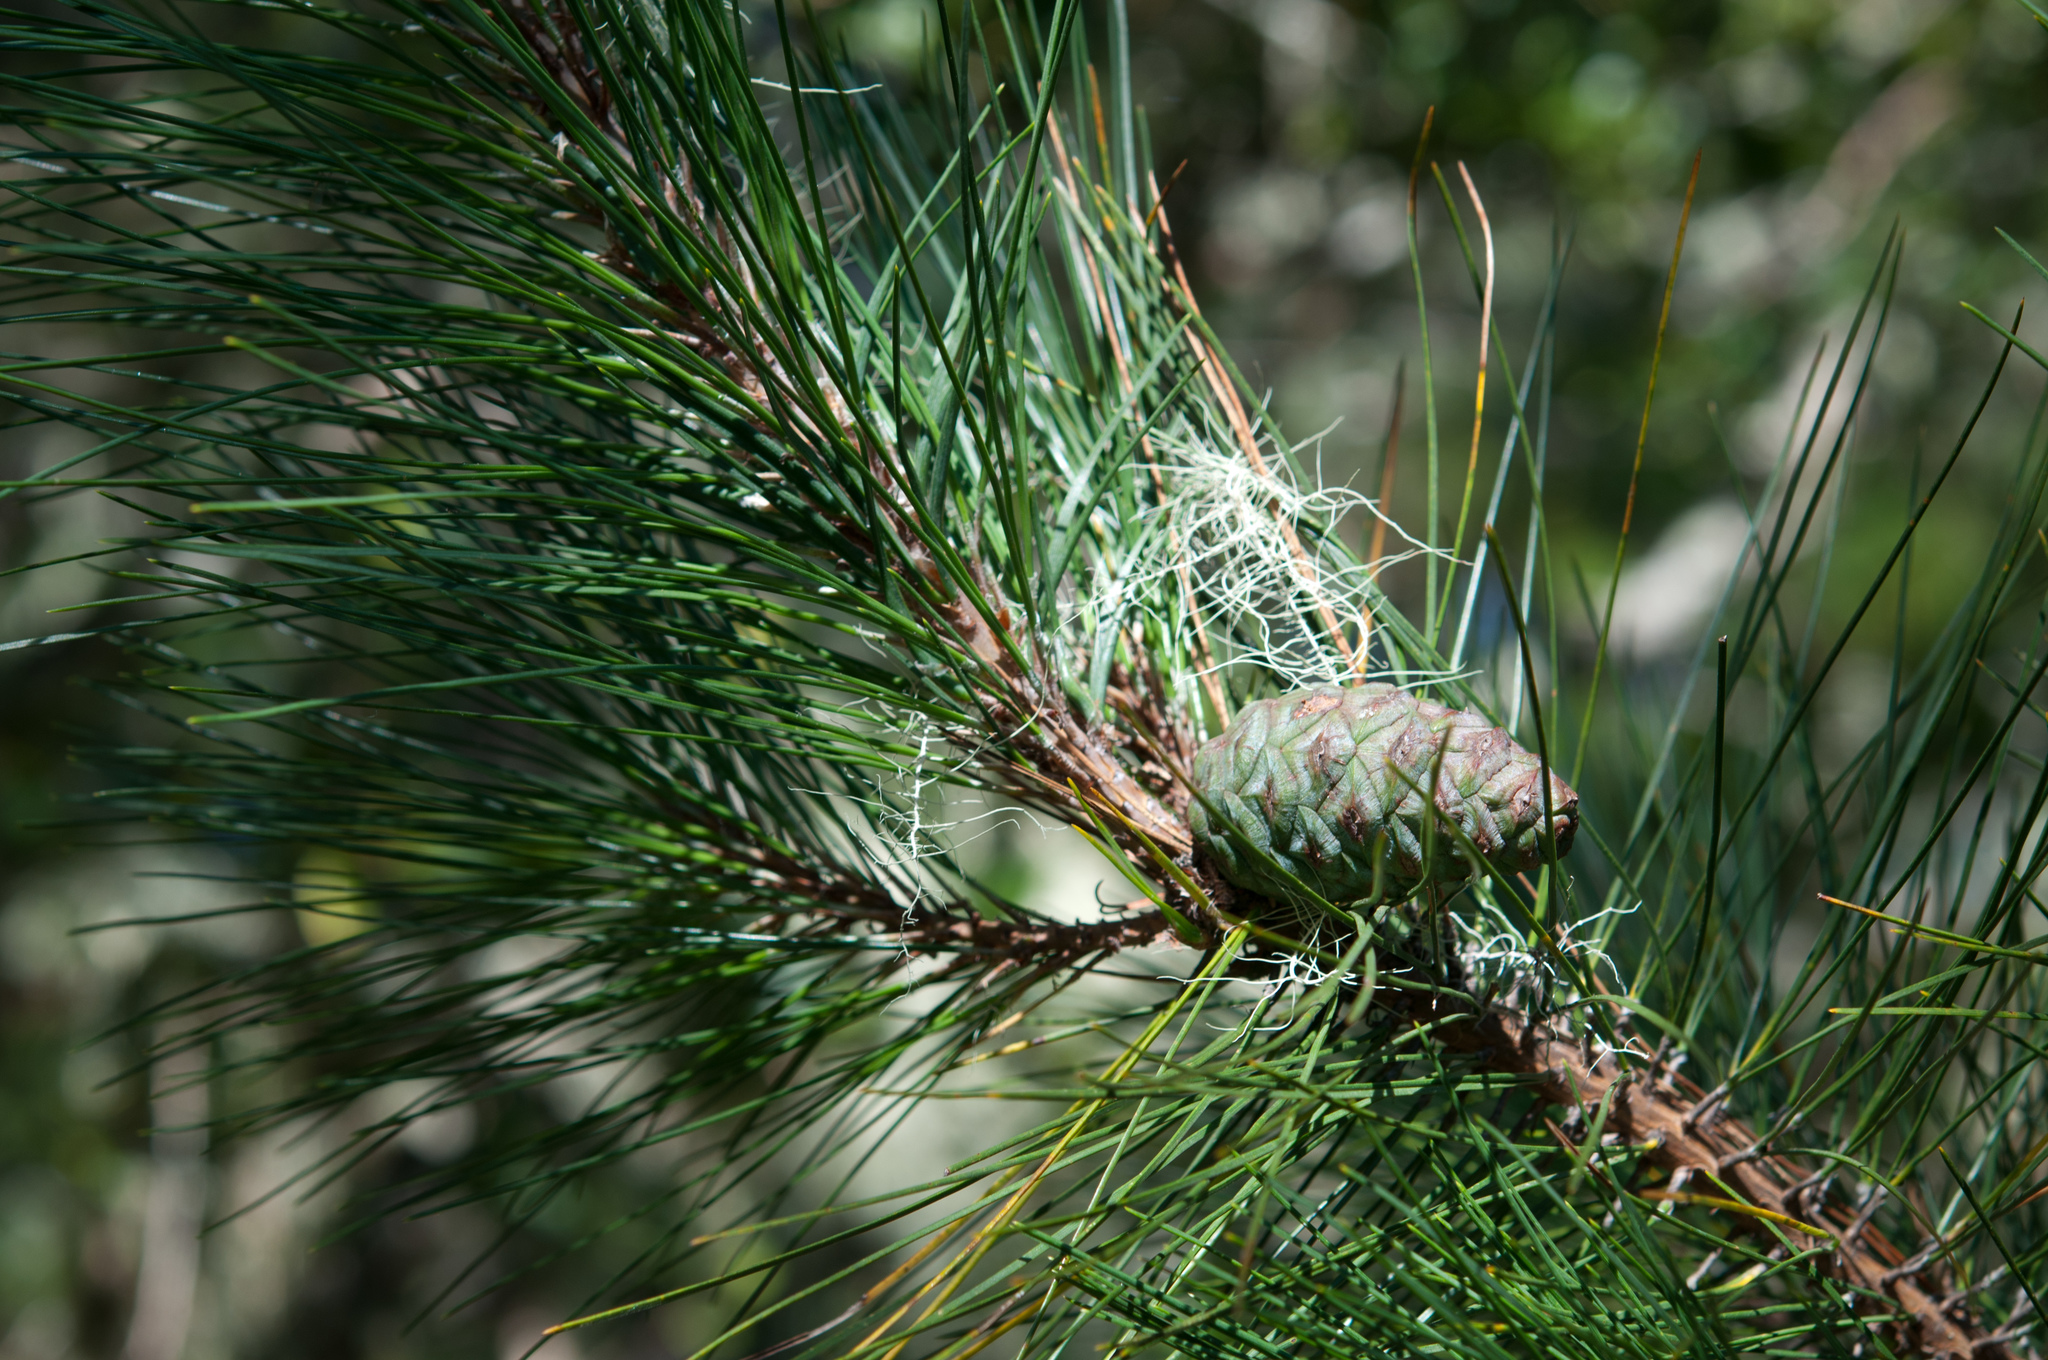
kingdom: Plantae
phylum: Tracheophyta
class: Pinopsida
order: Pinales
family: Pinaceae
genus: Pinus
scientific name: Pinus taiwanensis
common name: Formosa pine
